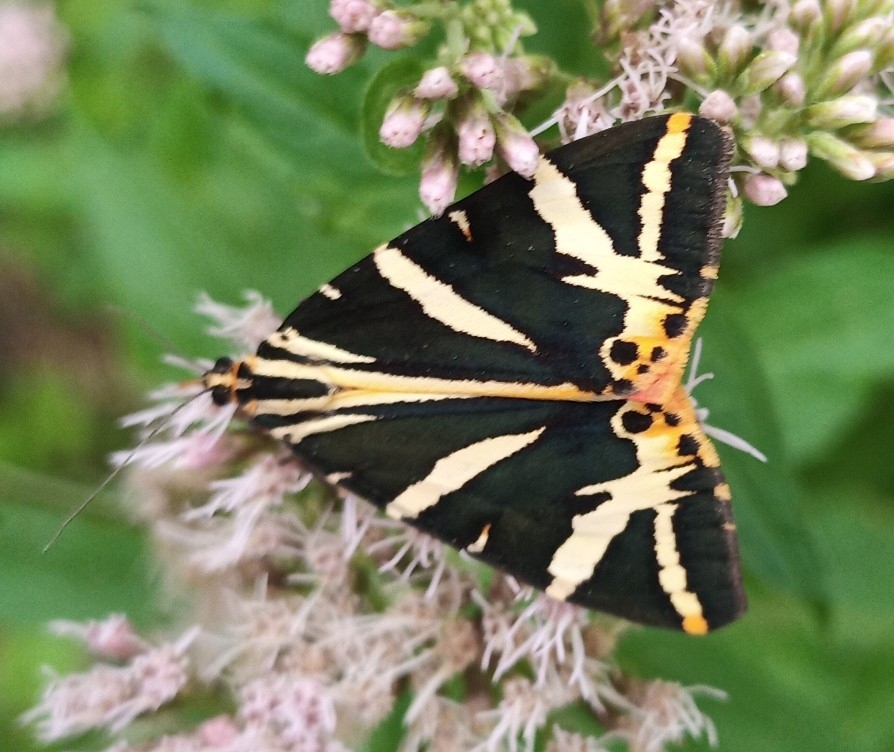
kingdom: Animalia
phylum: Arthropoda
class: Insecta
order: Lepidoptera
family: Erebidae
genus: Euplagia
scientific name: Euplagia quadripunctaria
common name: Jersey tiger
